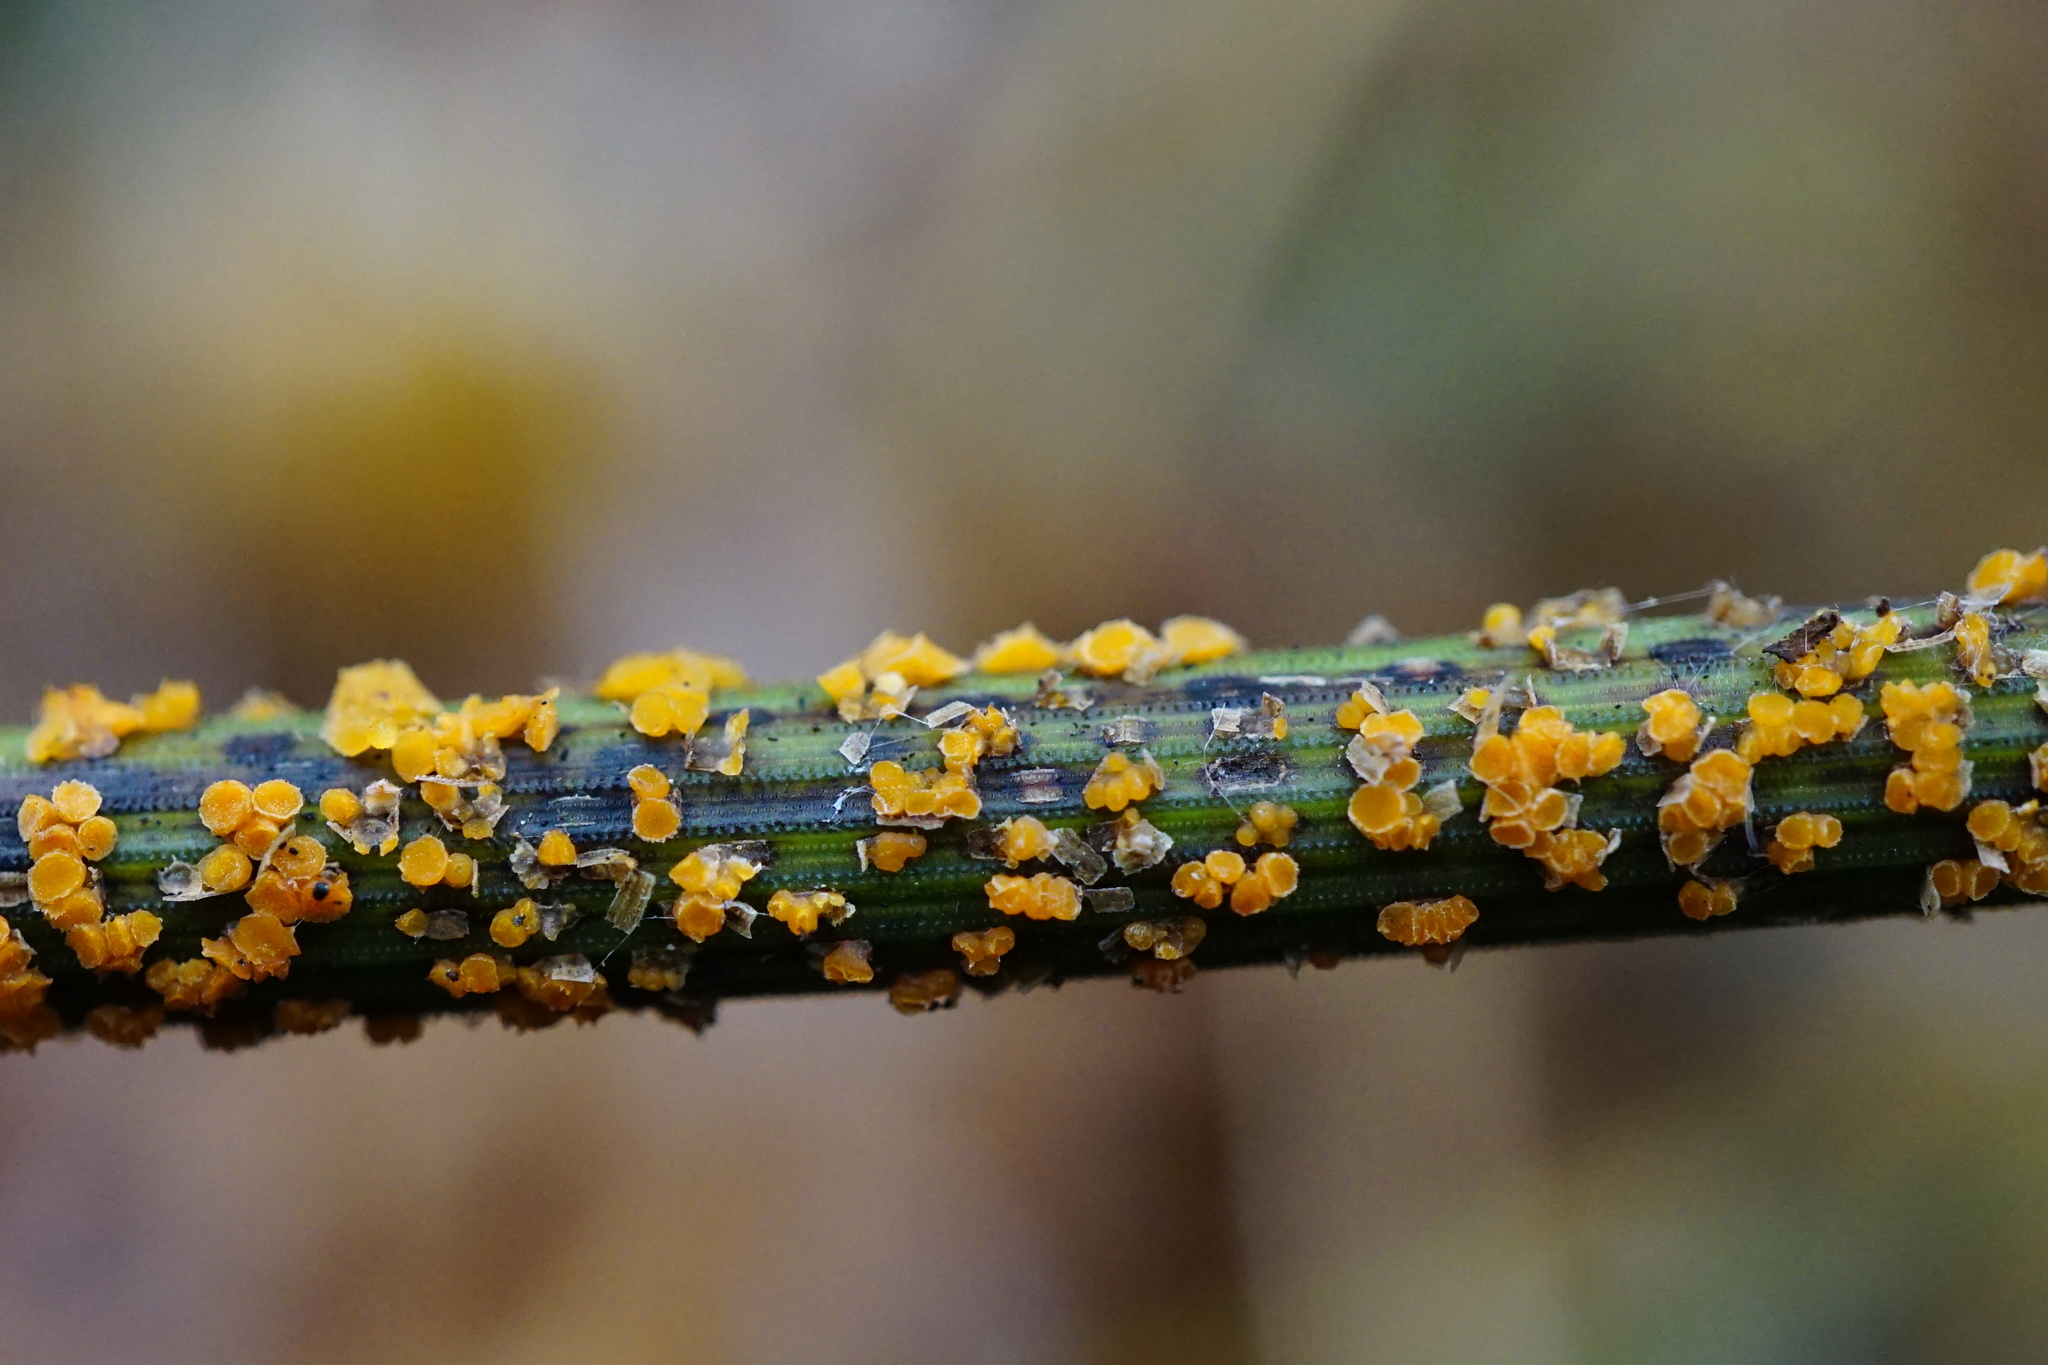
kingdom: Fungi
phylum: Ascomycota
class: Leotiomycetes
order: Helotiales
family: Helotiaceae
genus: Stamnaria
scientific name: Stamnaria americana
